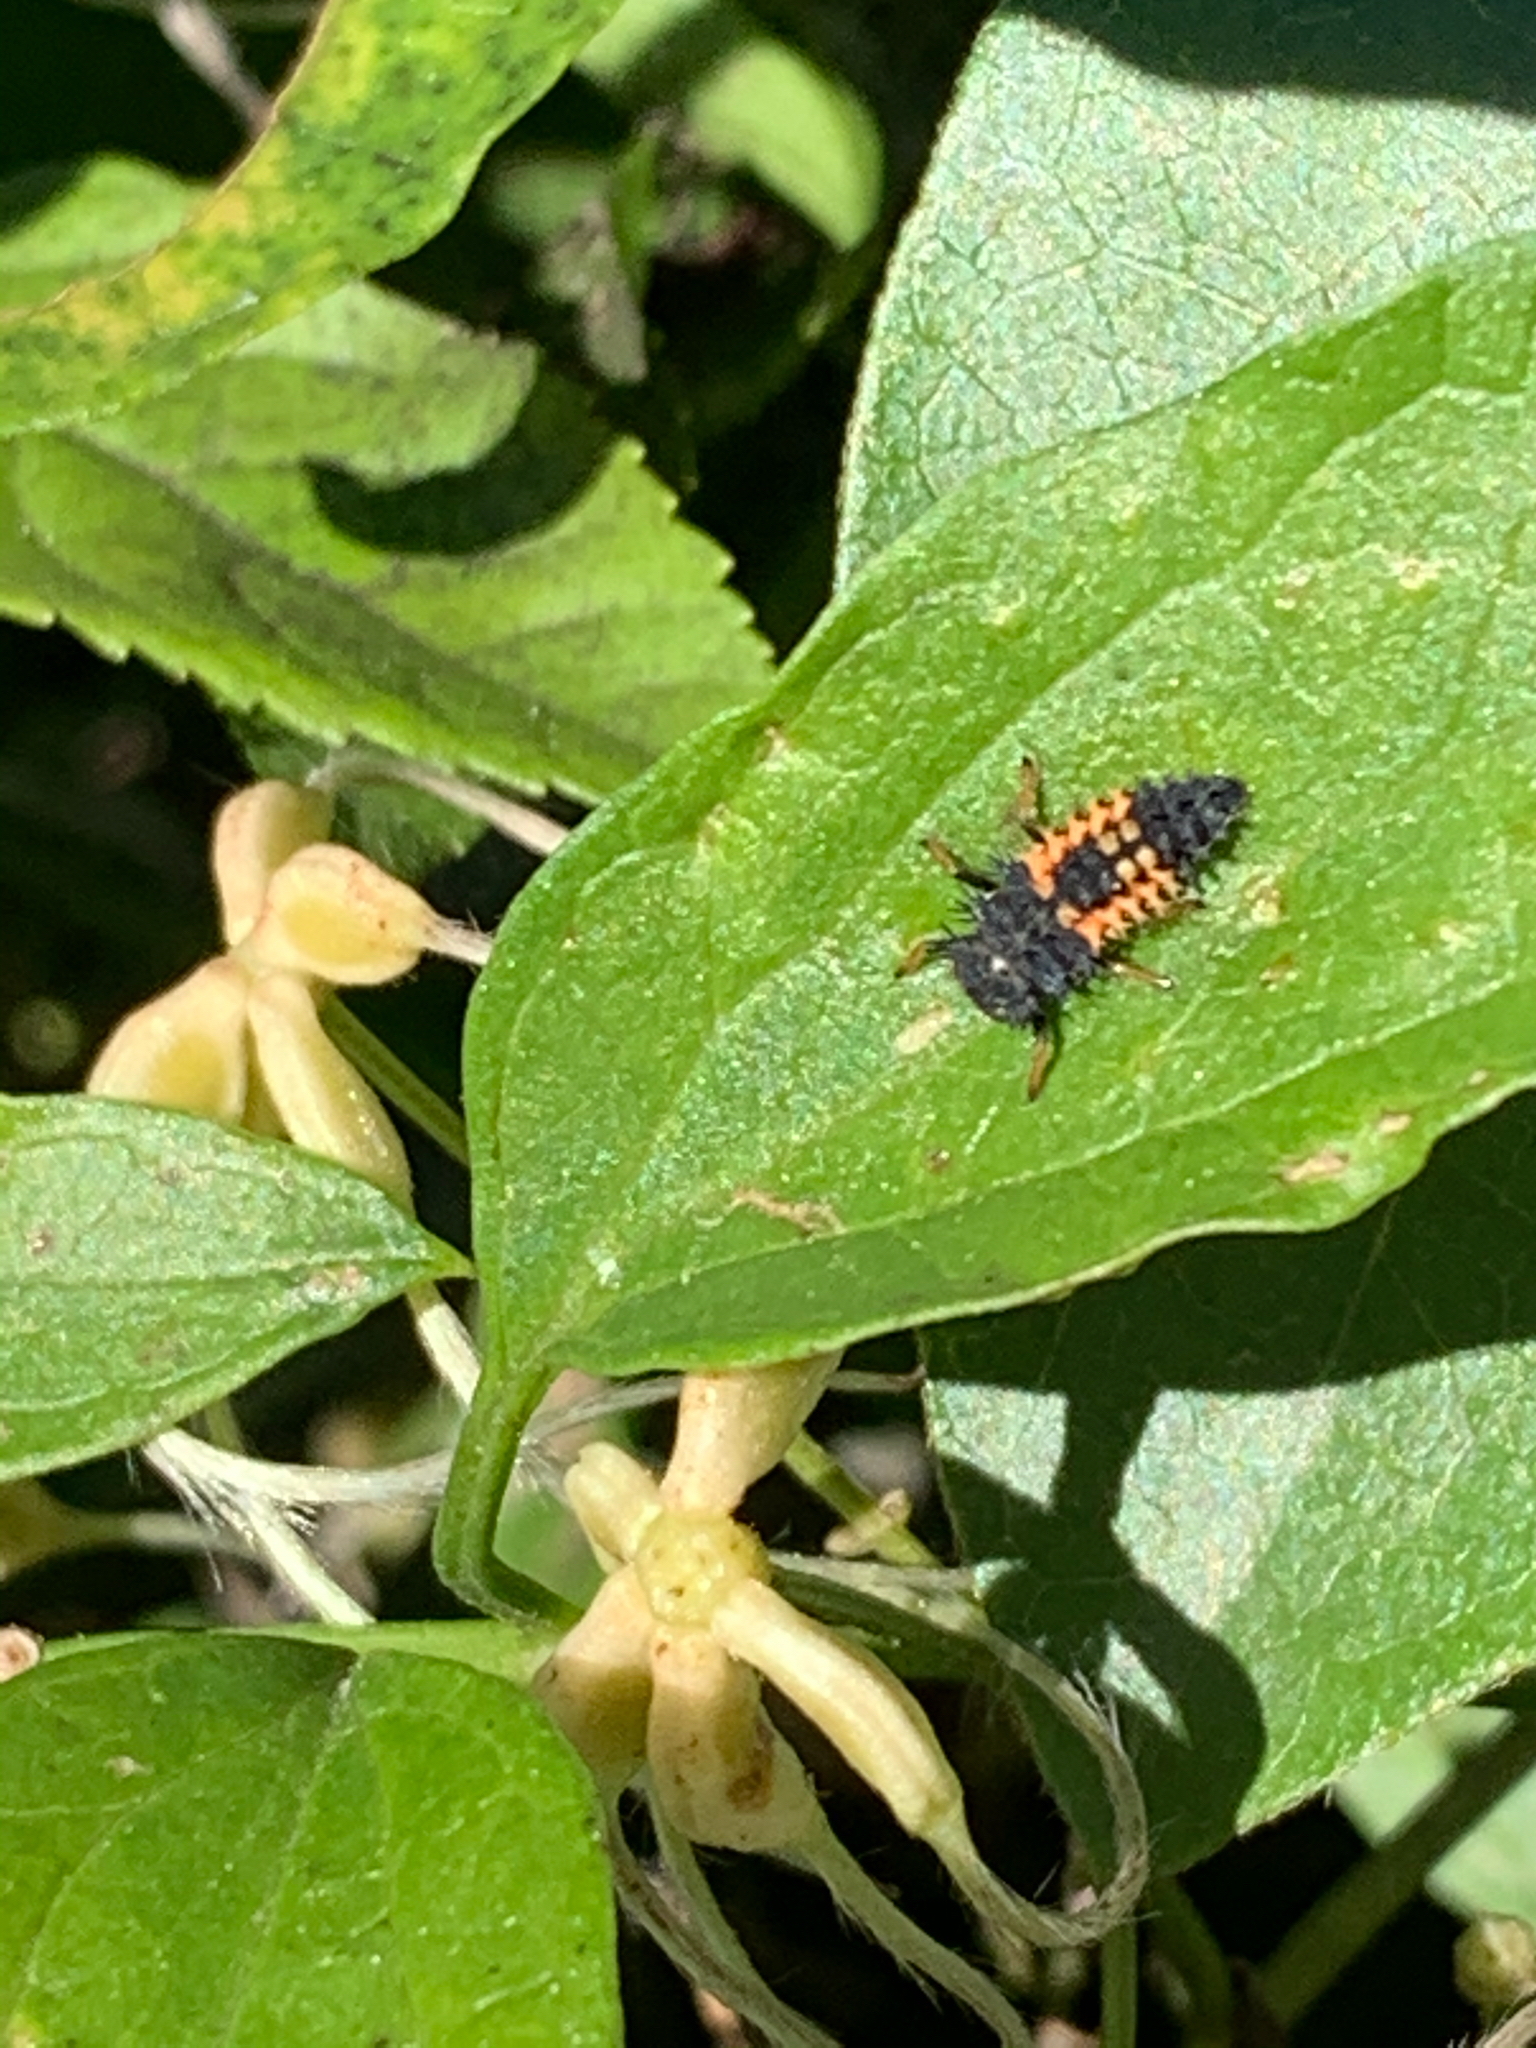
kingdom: Animalia
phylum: Arthropoda
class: Insecta
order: Coleoptera
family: Coccinellidae
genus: Harmonia
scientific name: Harmonia axyridis
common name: Harlequin ladybird
